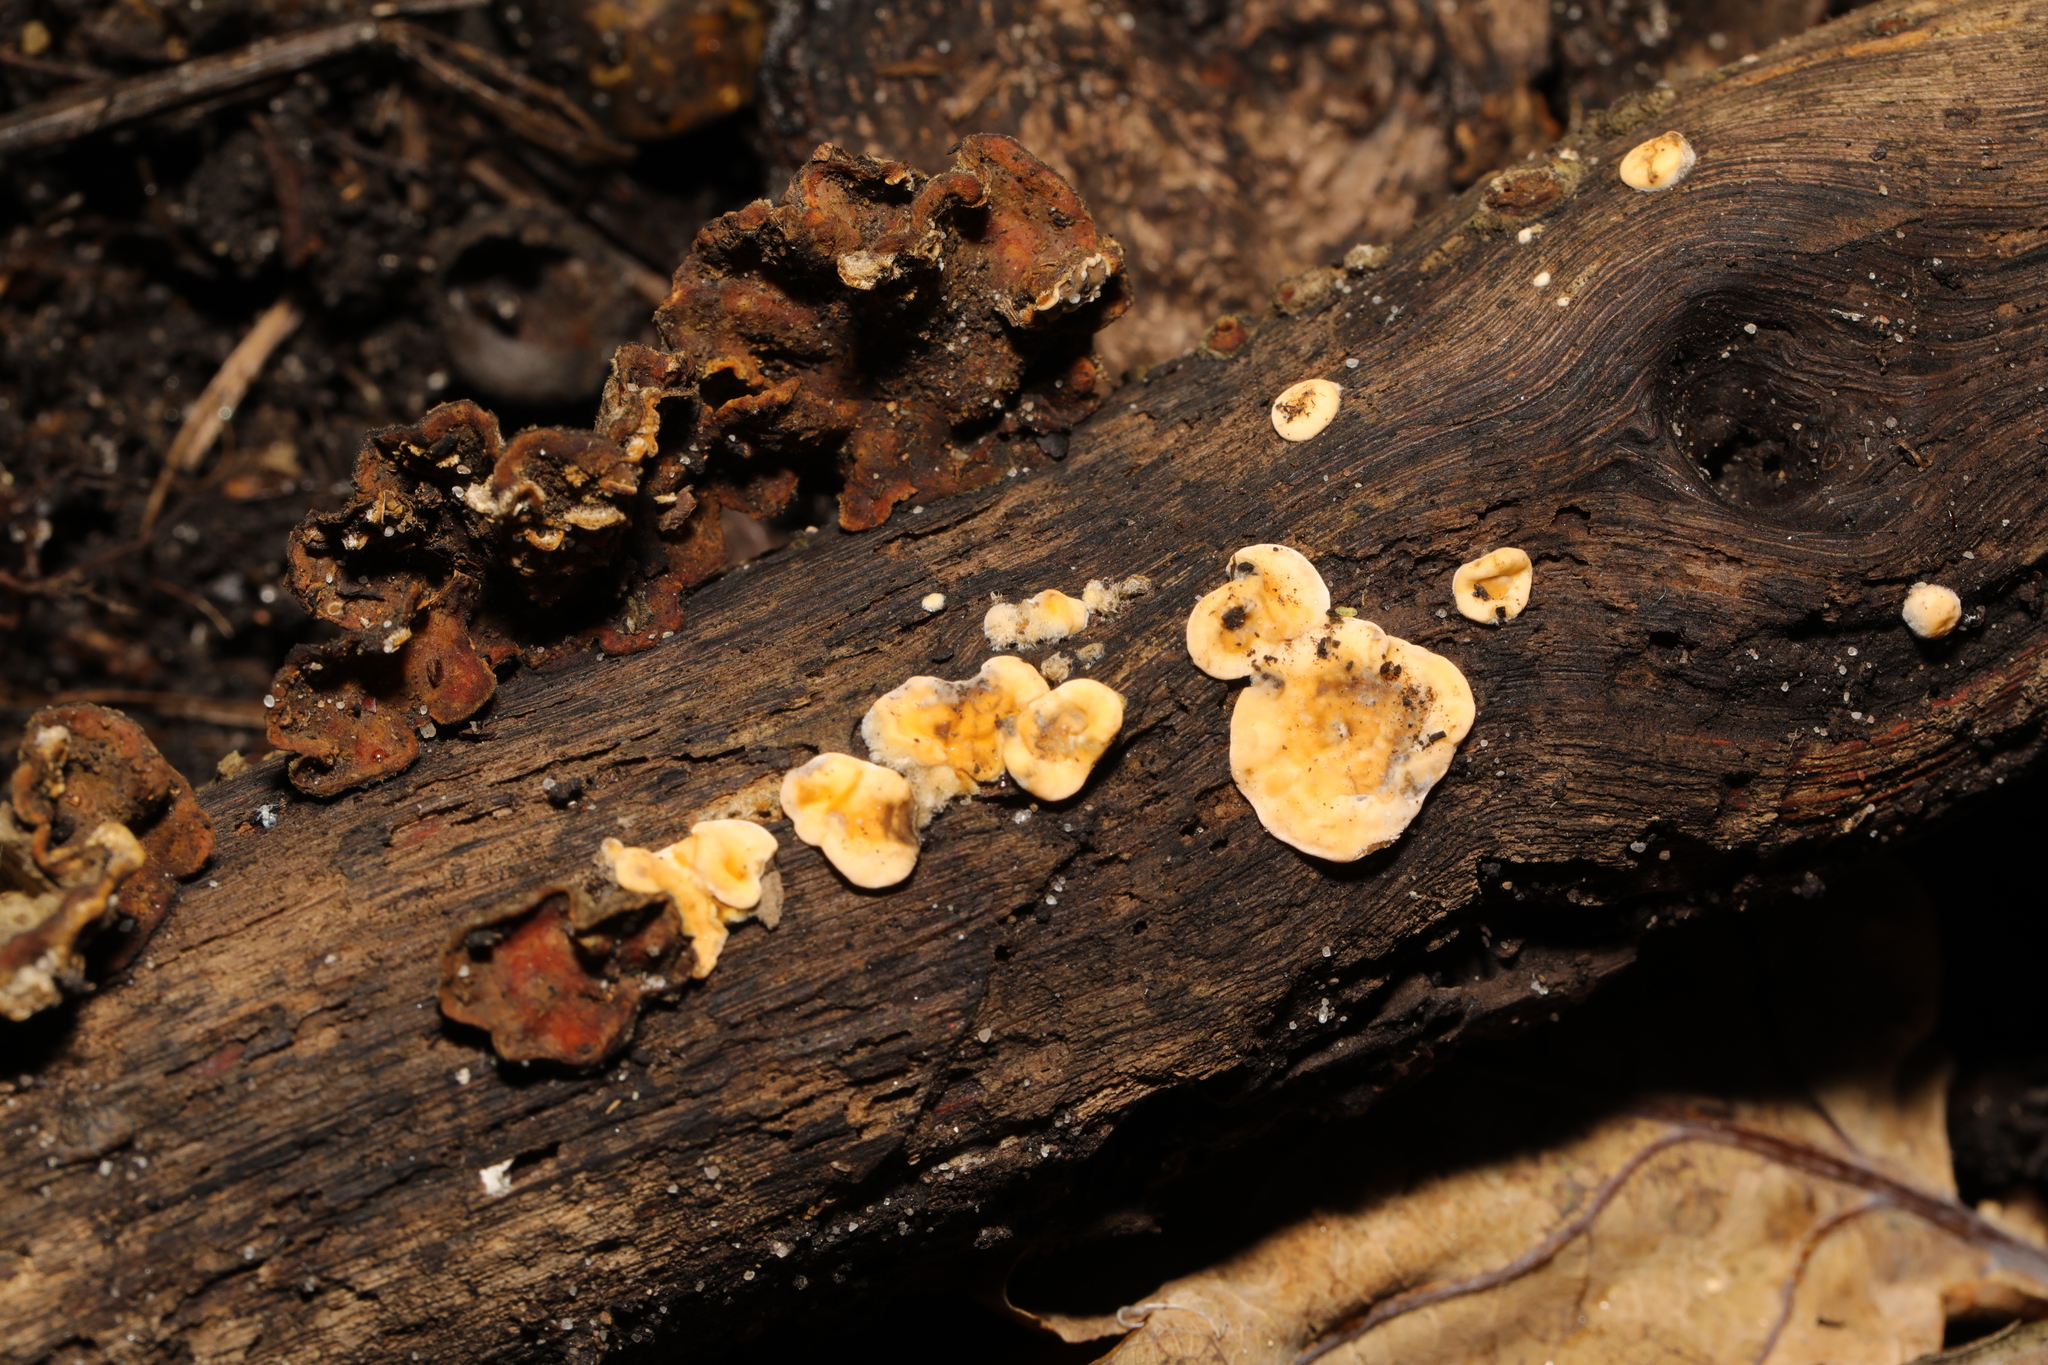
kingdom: Fungi
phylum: Basidiomycota
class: Agaricomycetes
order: Russulales
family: Stereaceae
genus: Stereum
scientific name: Stereum hirsutum
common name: Hairy curtain crust
